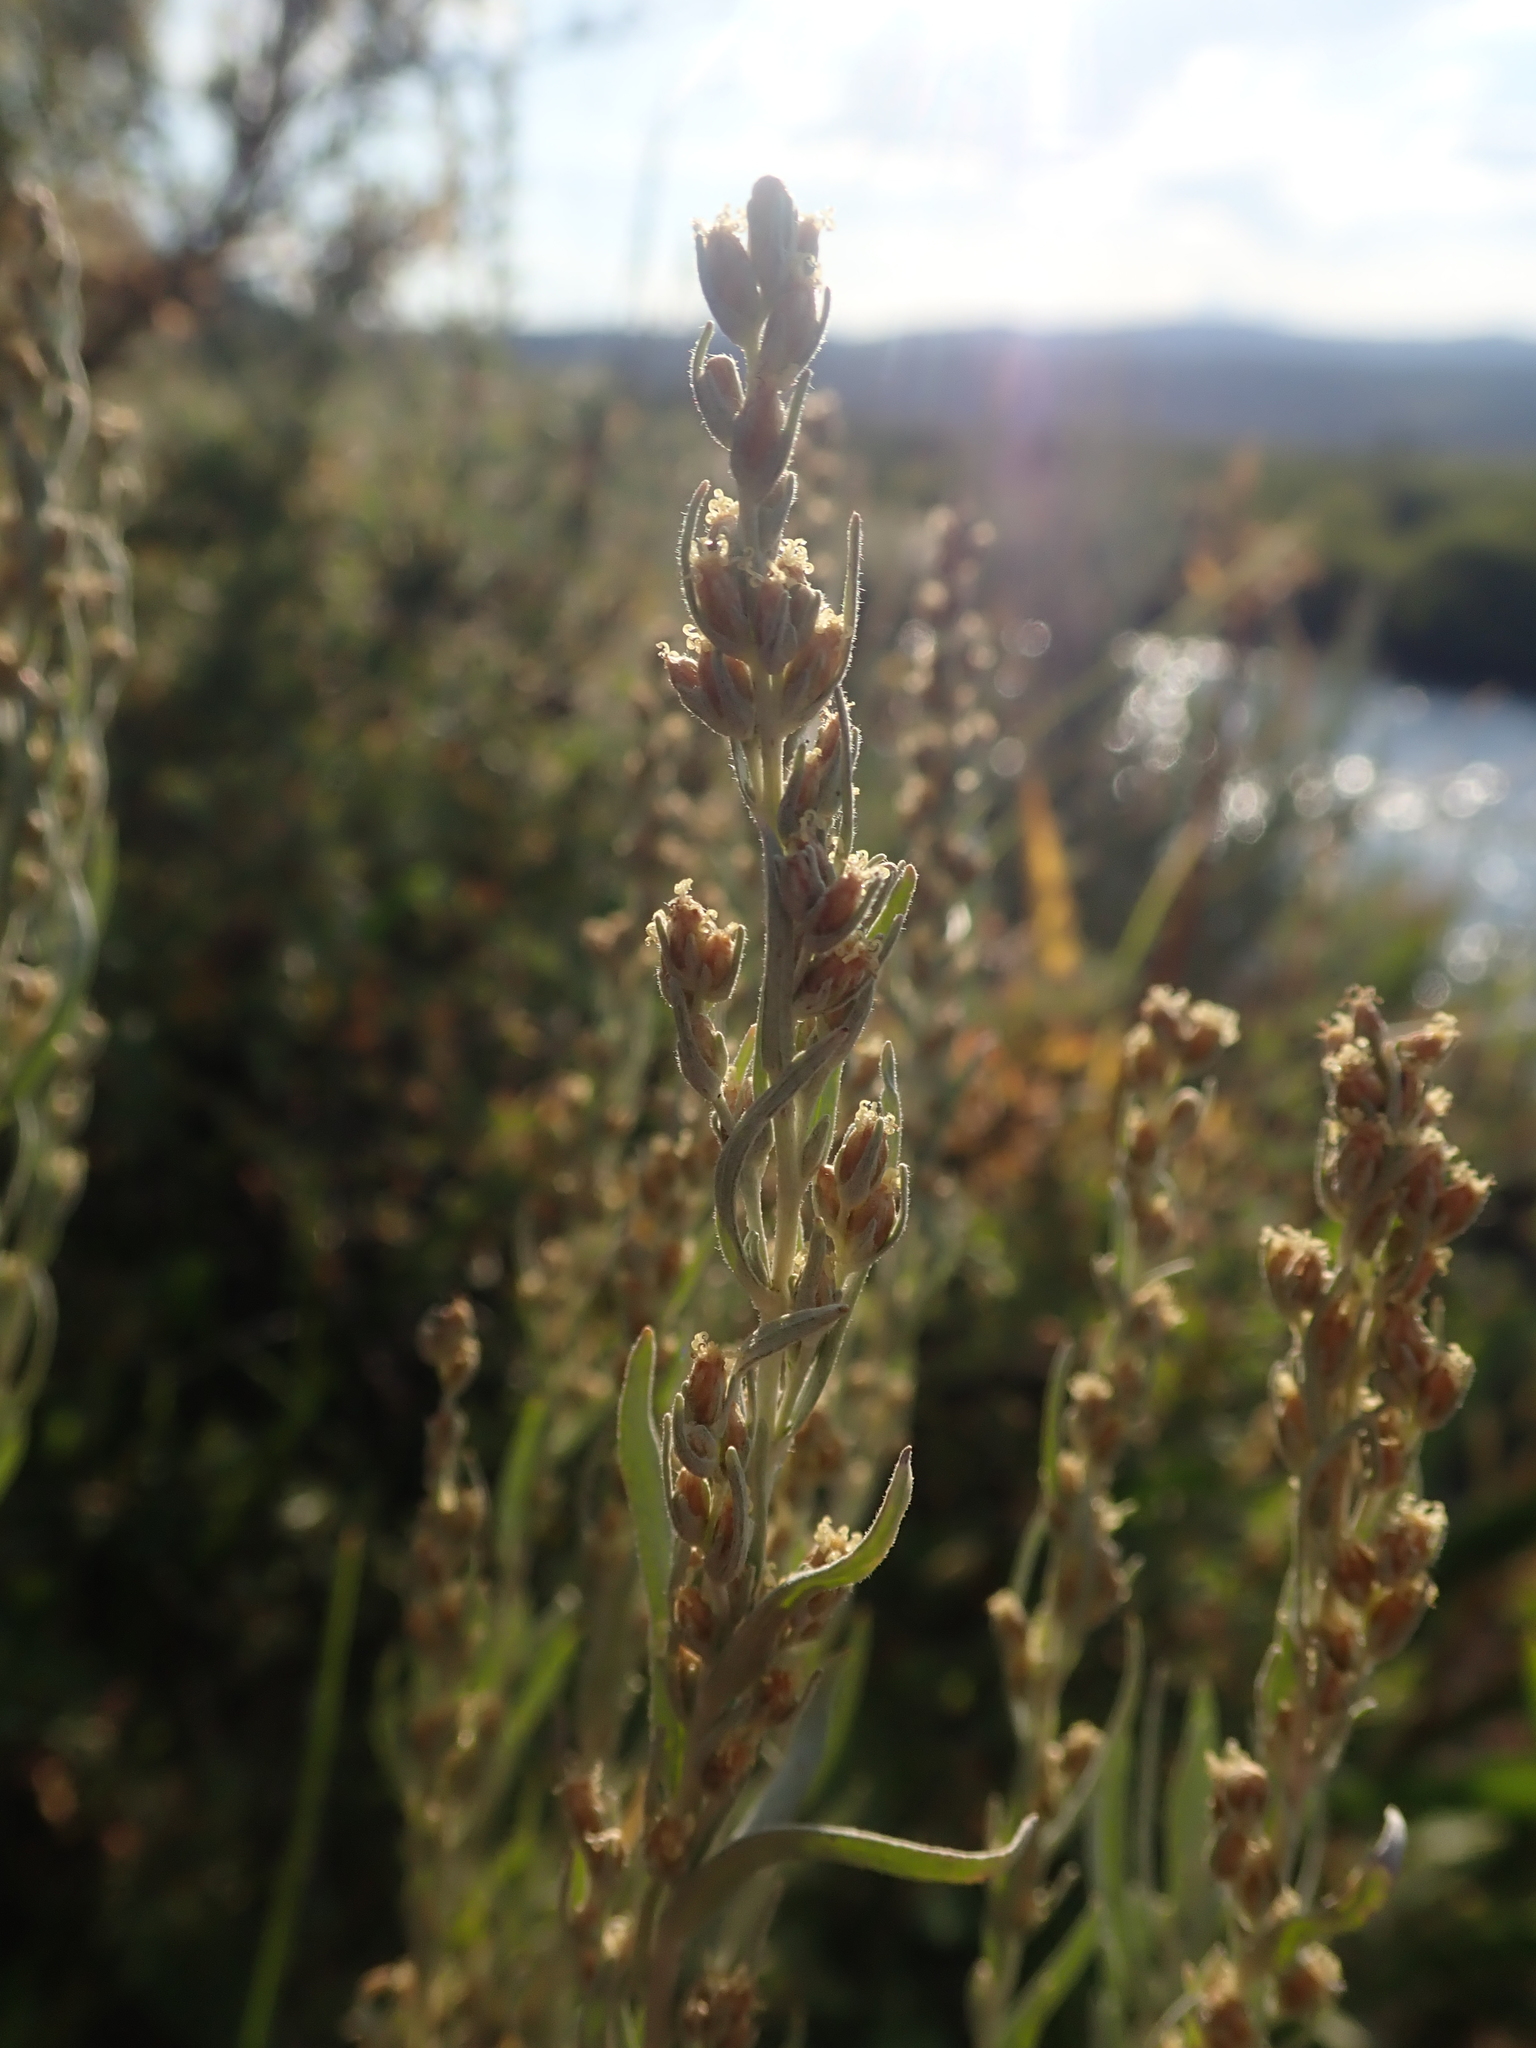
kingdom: Plantae
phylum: Tracheophyta
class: Magnoliopsida
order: Asterales
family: Asteraceae
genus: Artemisia
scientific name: Artemisia cana
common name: Silver sagebrush
